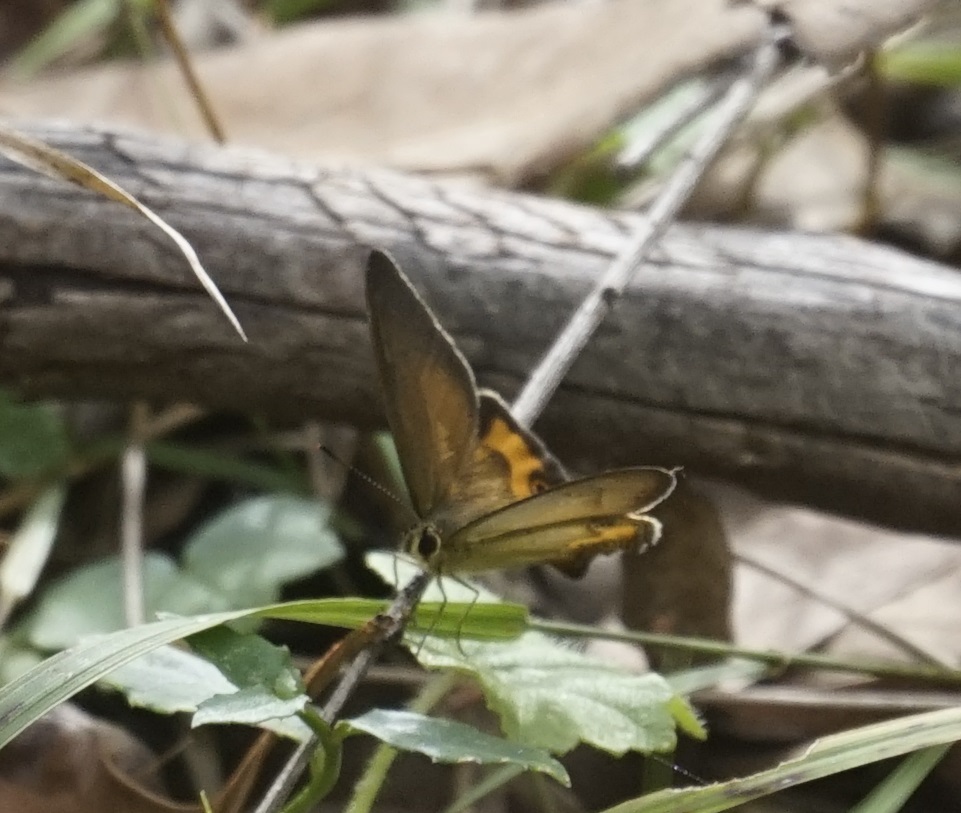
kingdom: Animalia
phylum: Arthropoda
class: Insecta
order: Lepidoptera
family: Nymphalidae
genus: Hypocysta
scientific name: Hypocysta metirius
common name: Brown ringlet
